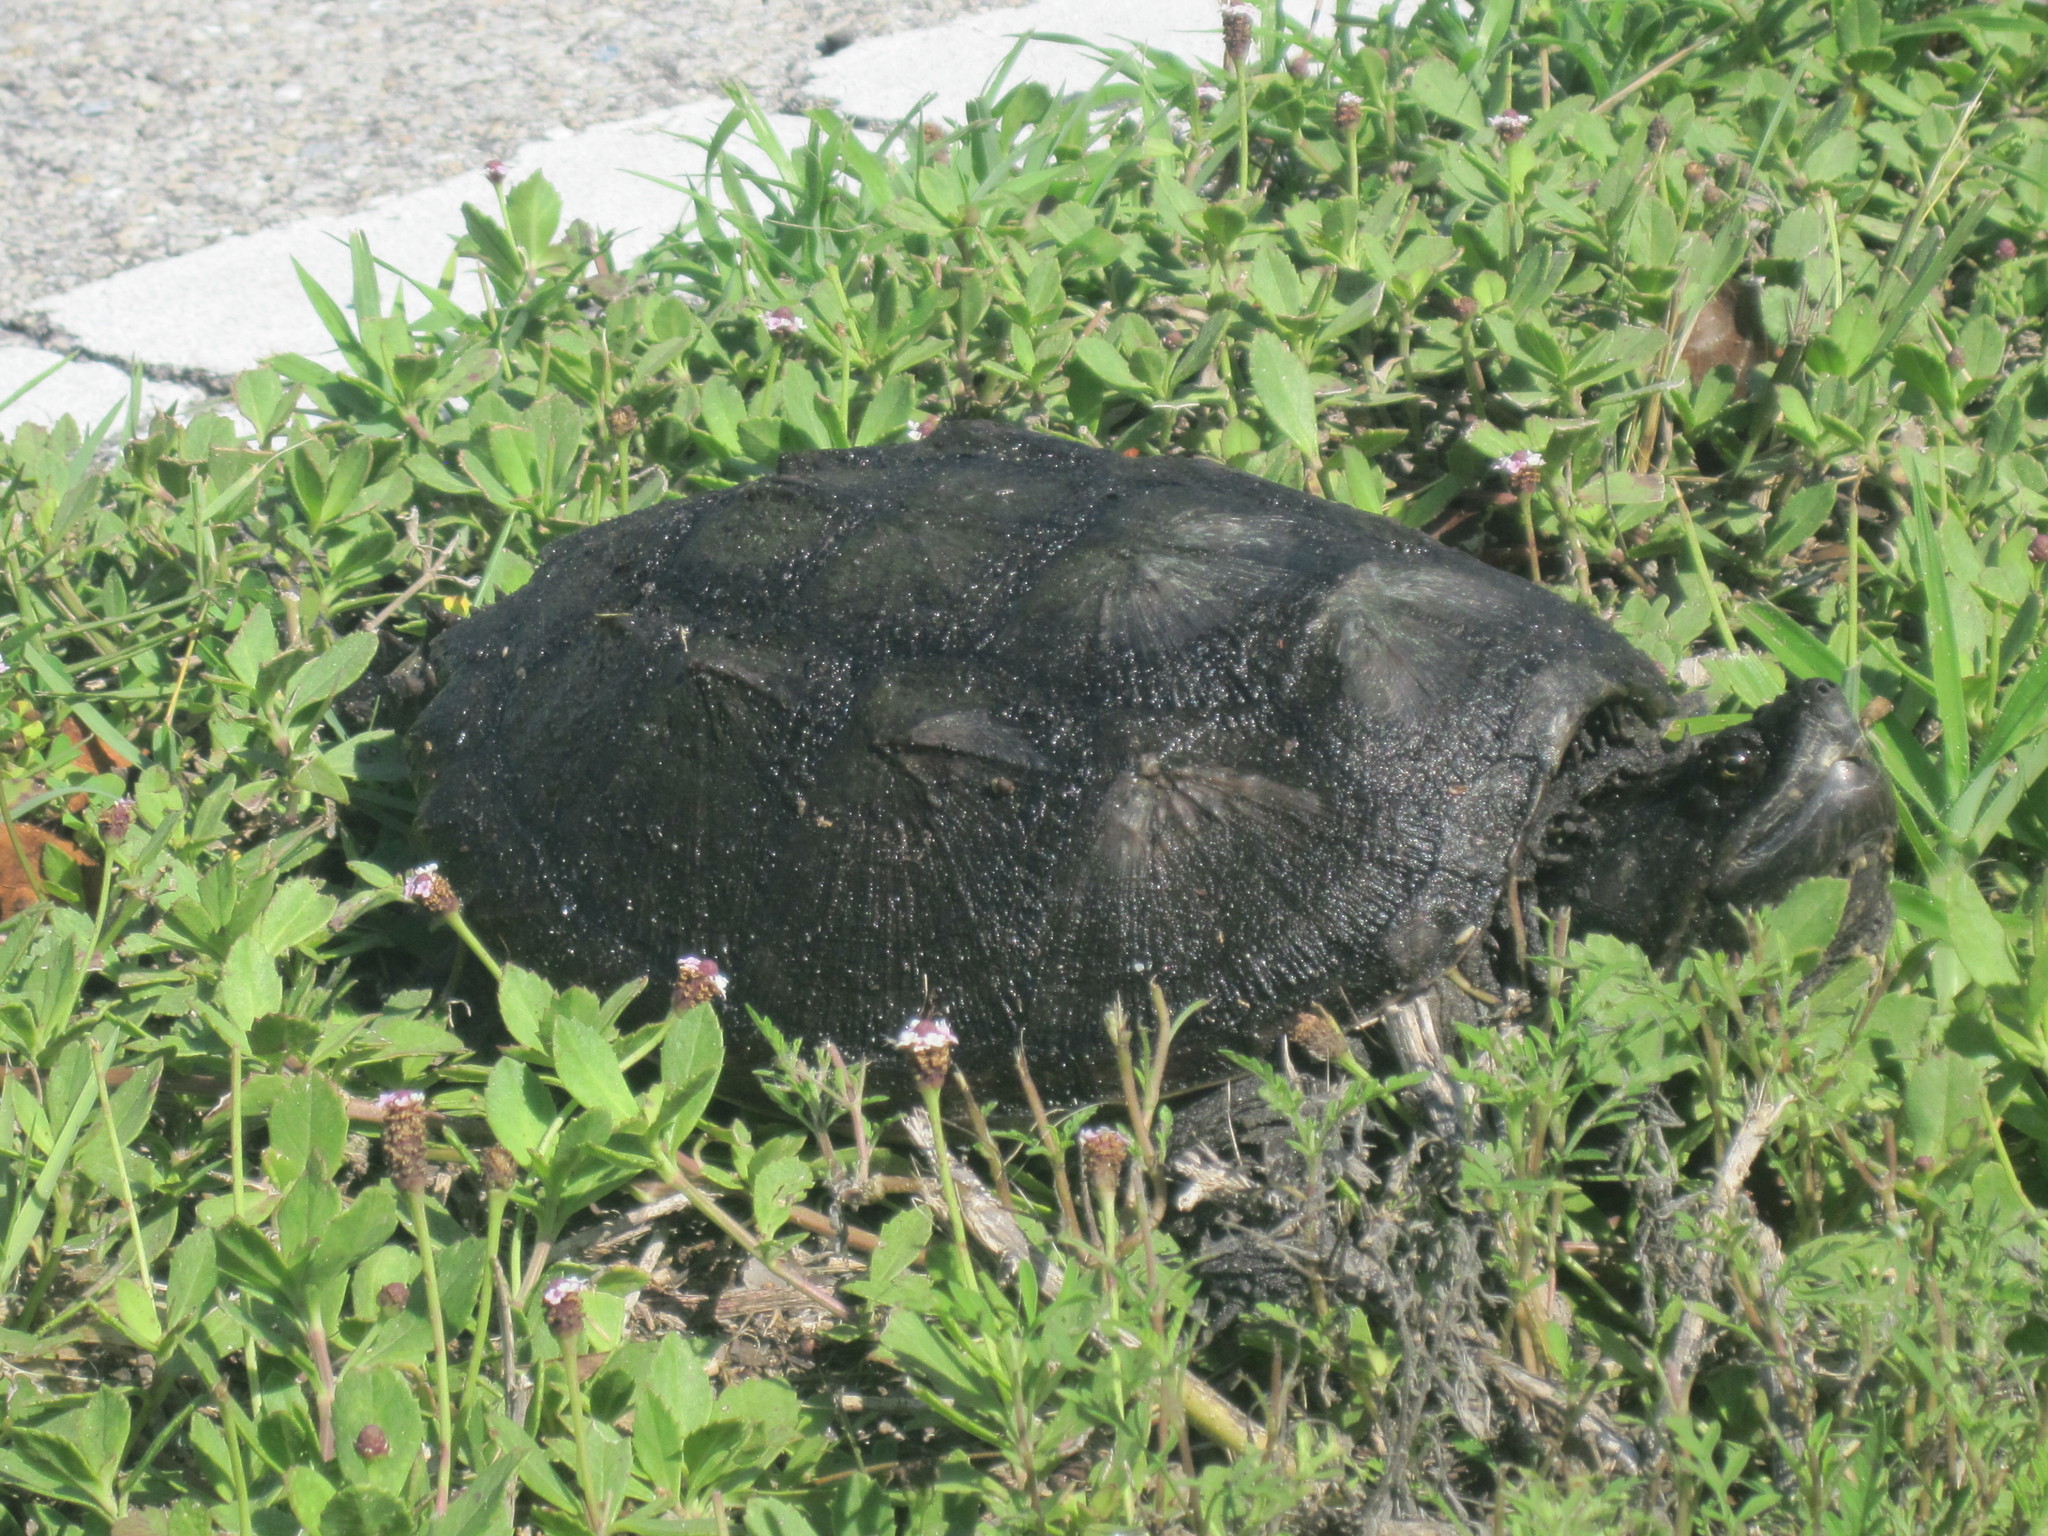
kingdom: Animalia
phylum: Chordata
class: Testudines
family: Chelydridae
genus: Chelydra
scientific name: Chelydra serpentina
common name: Common snapping turtle
